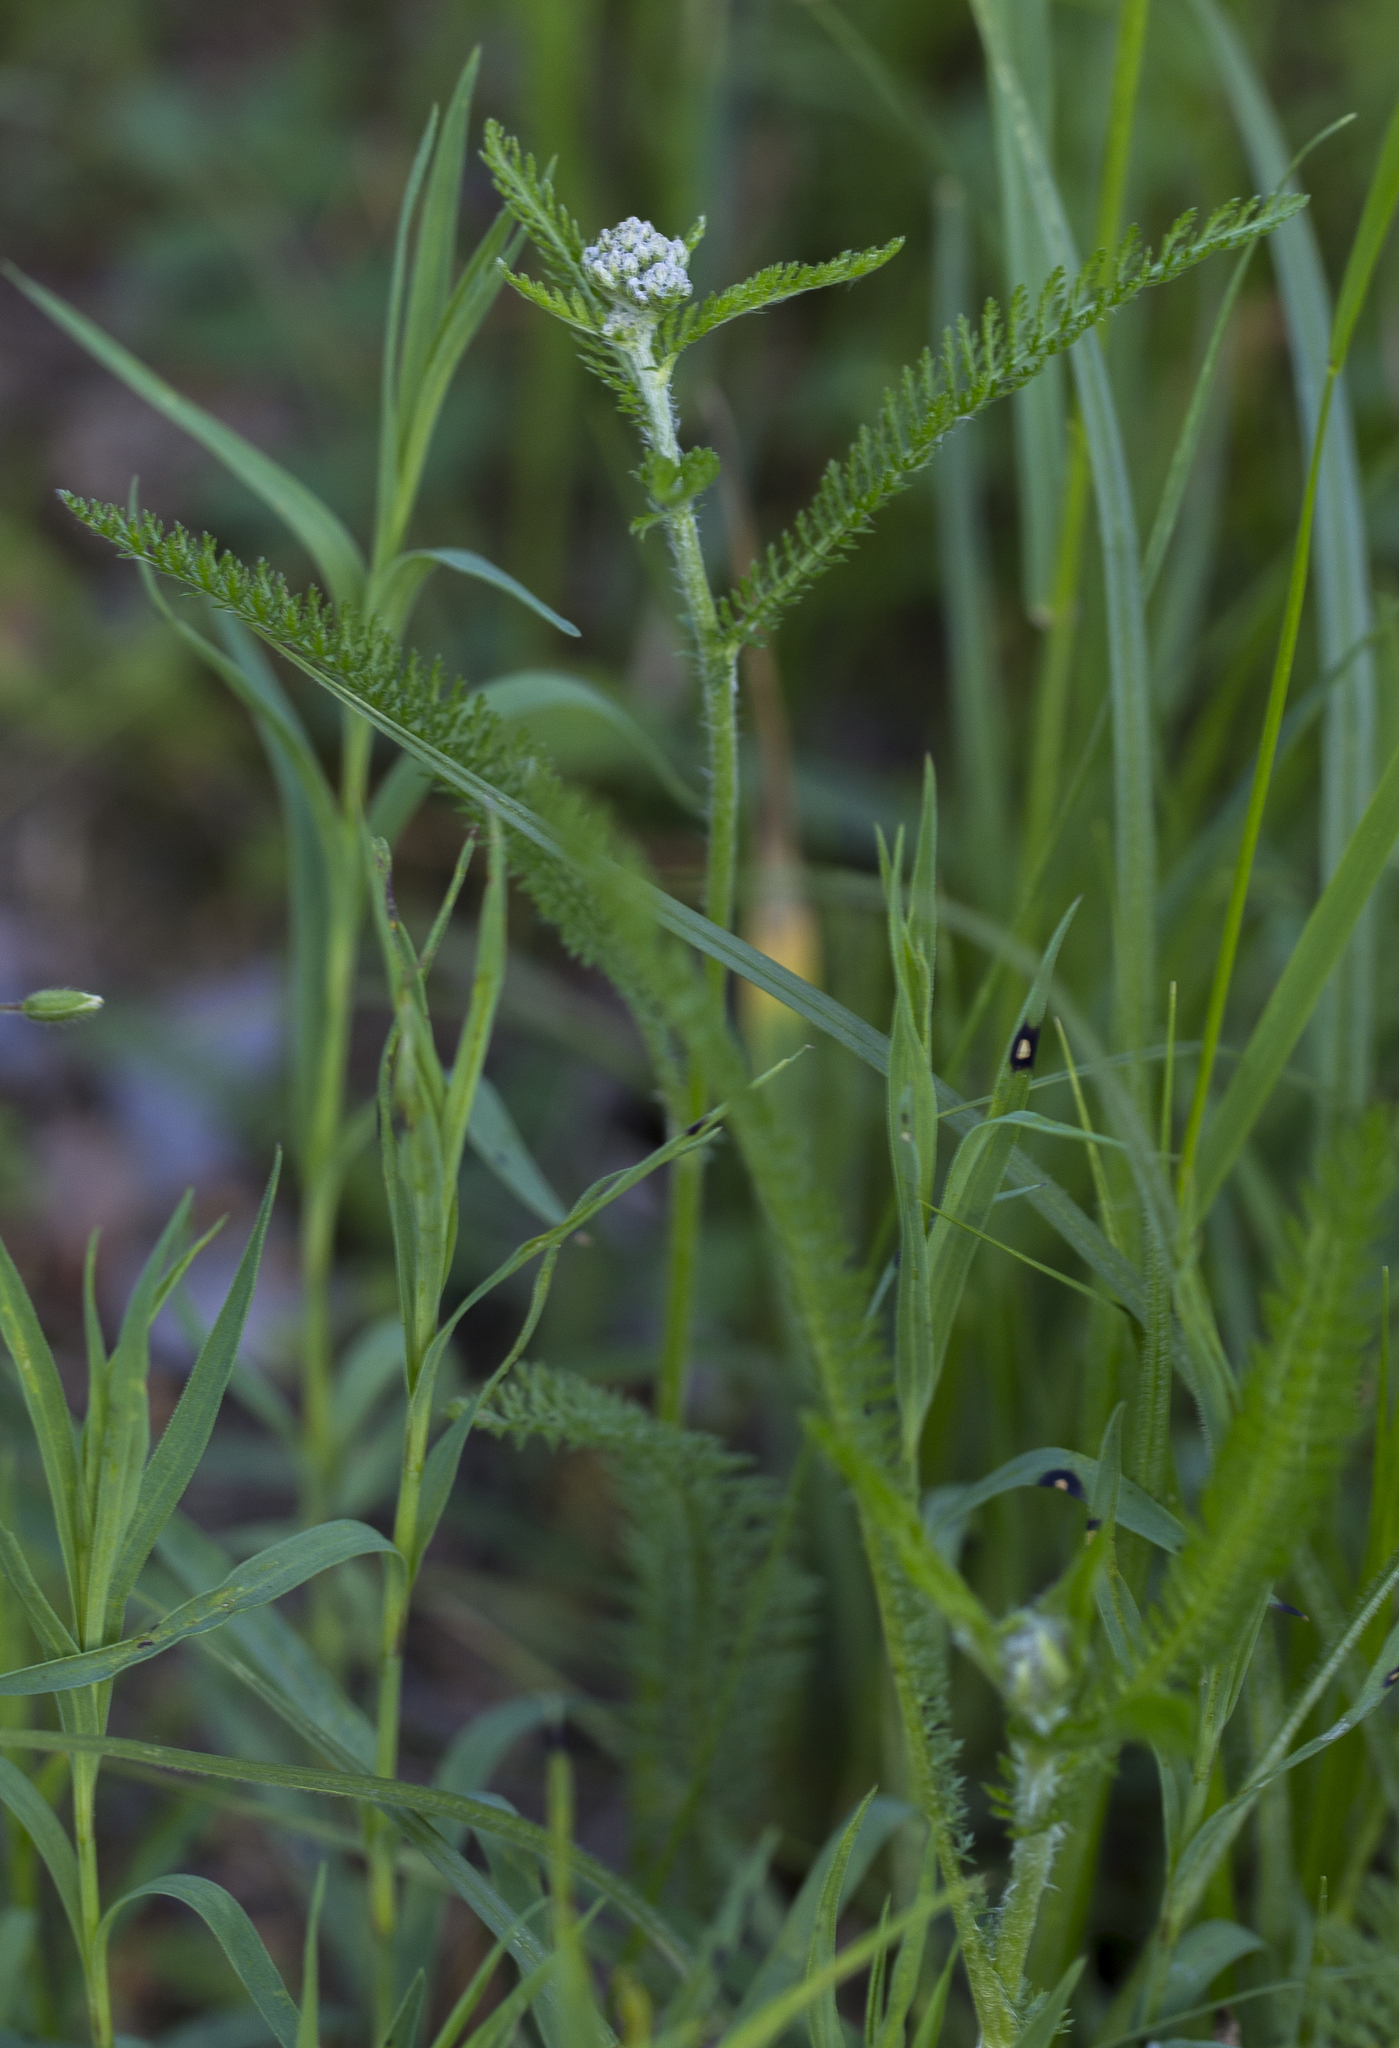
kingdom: Plantae
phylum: Tracheophyta
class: Magnoliopsida
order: Asterales
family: Asteraceae
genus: Achillea
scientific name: Achillea millefolium
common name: Yarrow
